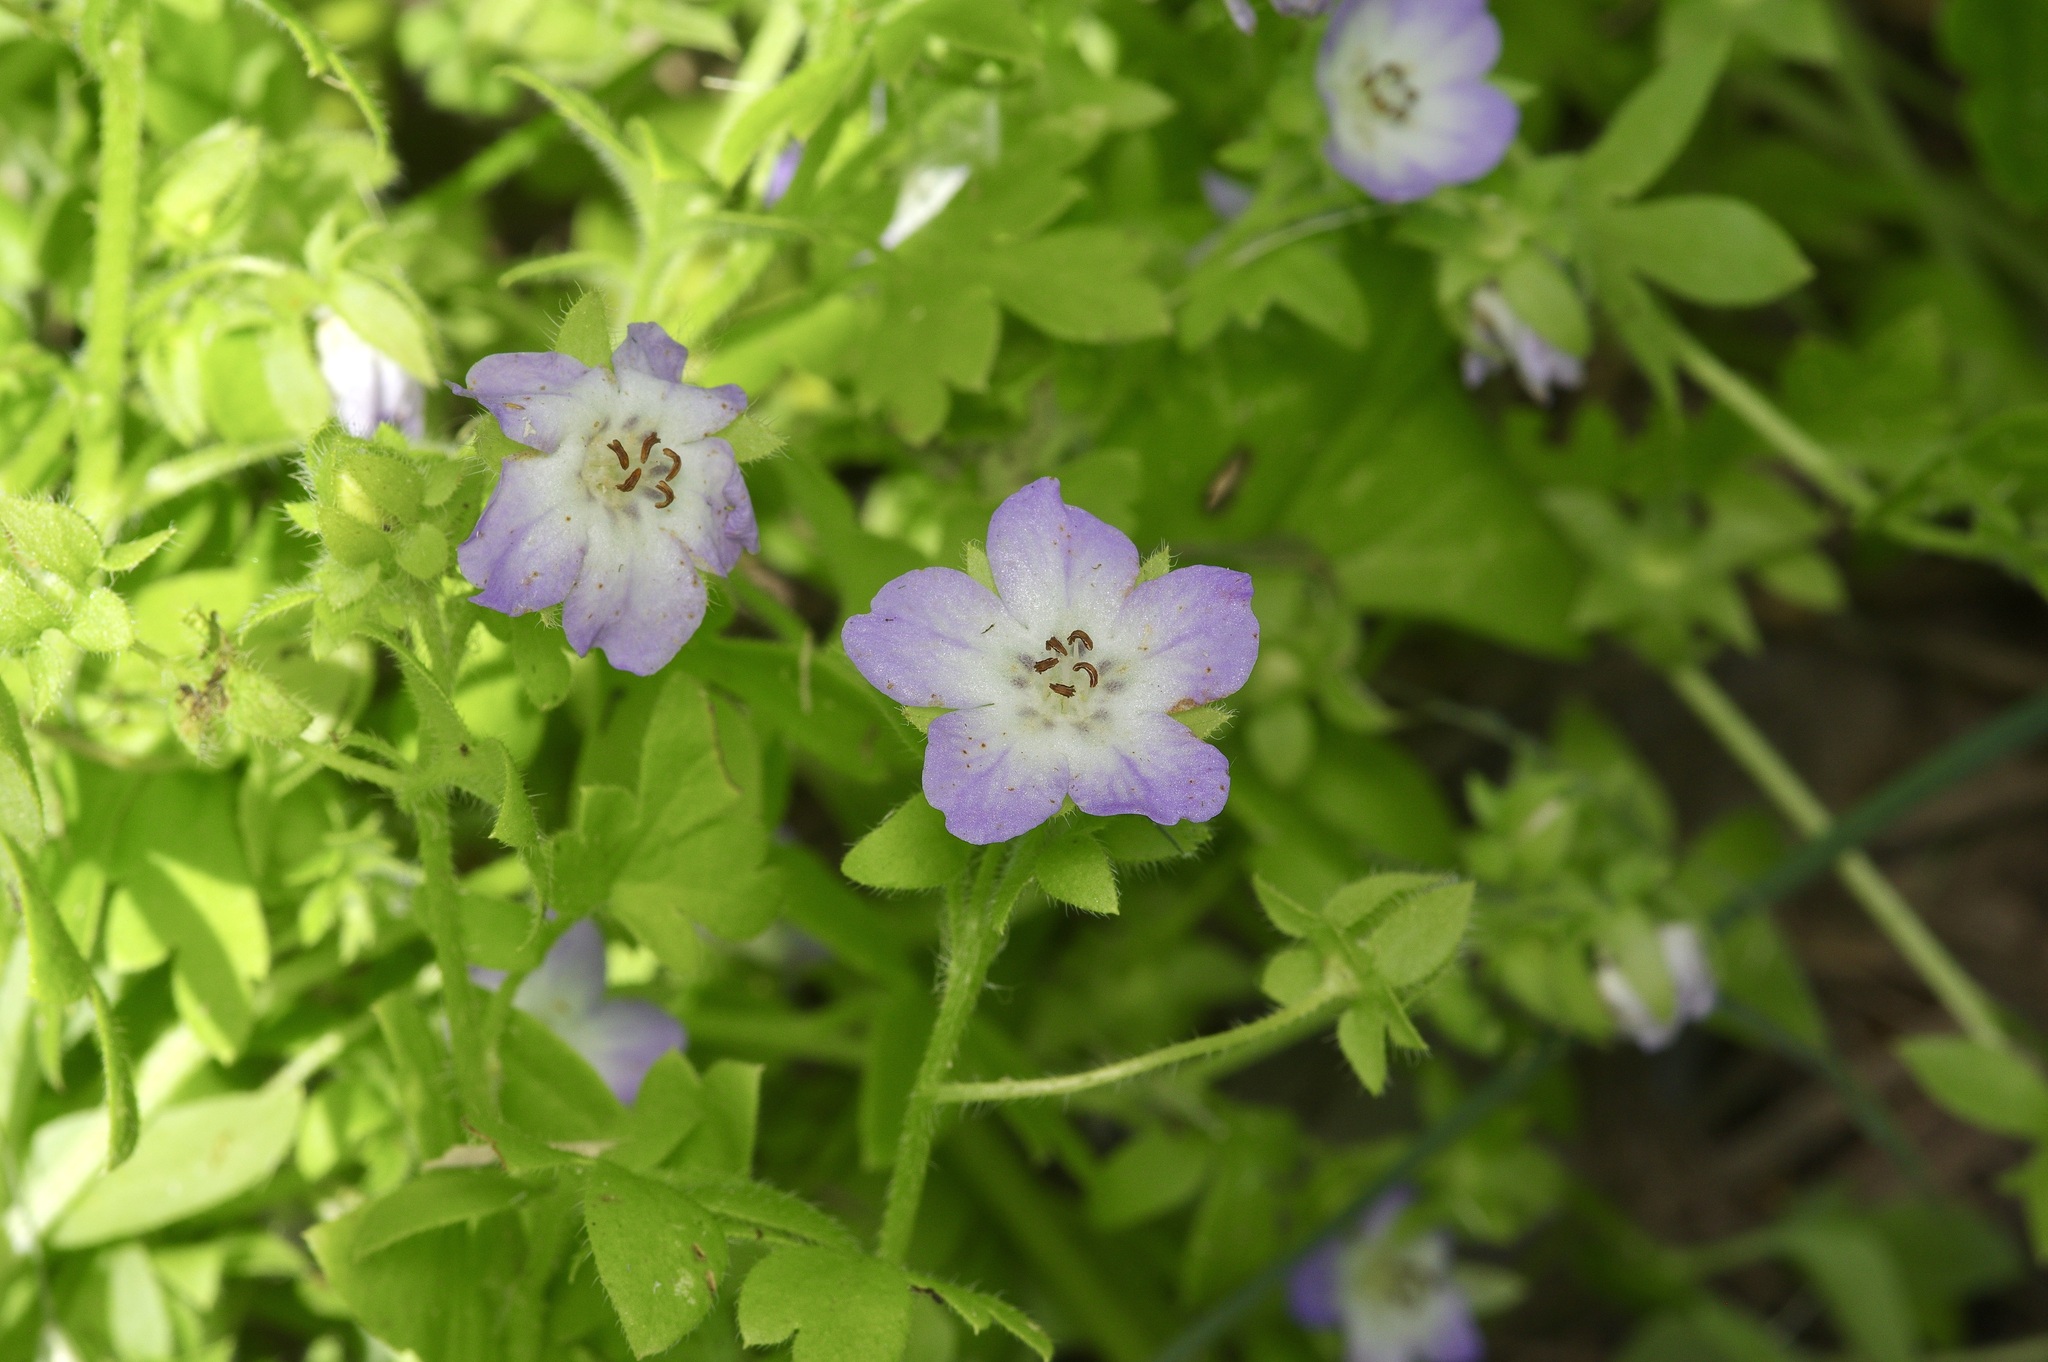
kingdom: Plantae
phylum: Tracheophyta
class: Magnoliopsida
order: Boraginales
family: Hydrophyllaceae
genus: Nemophila
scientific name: Nemophila phacelioides
